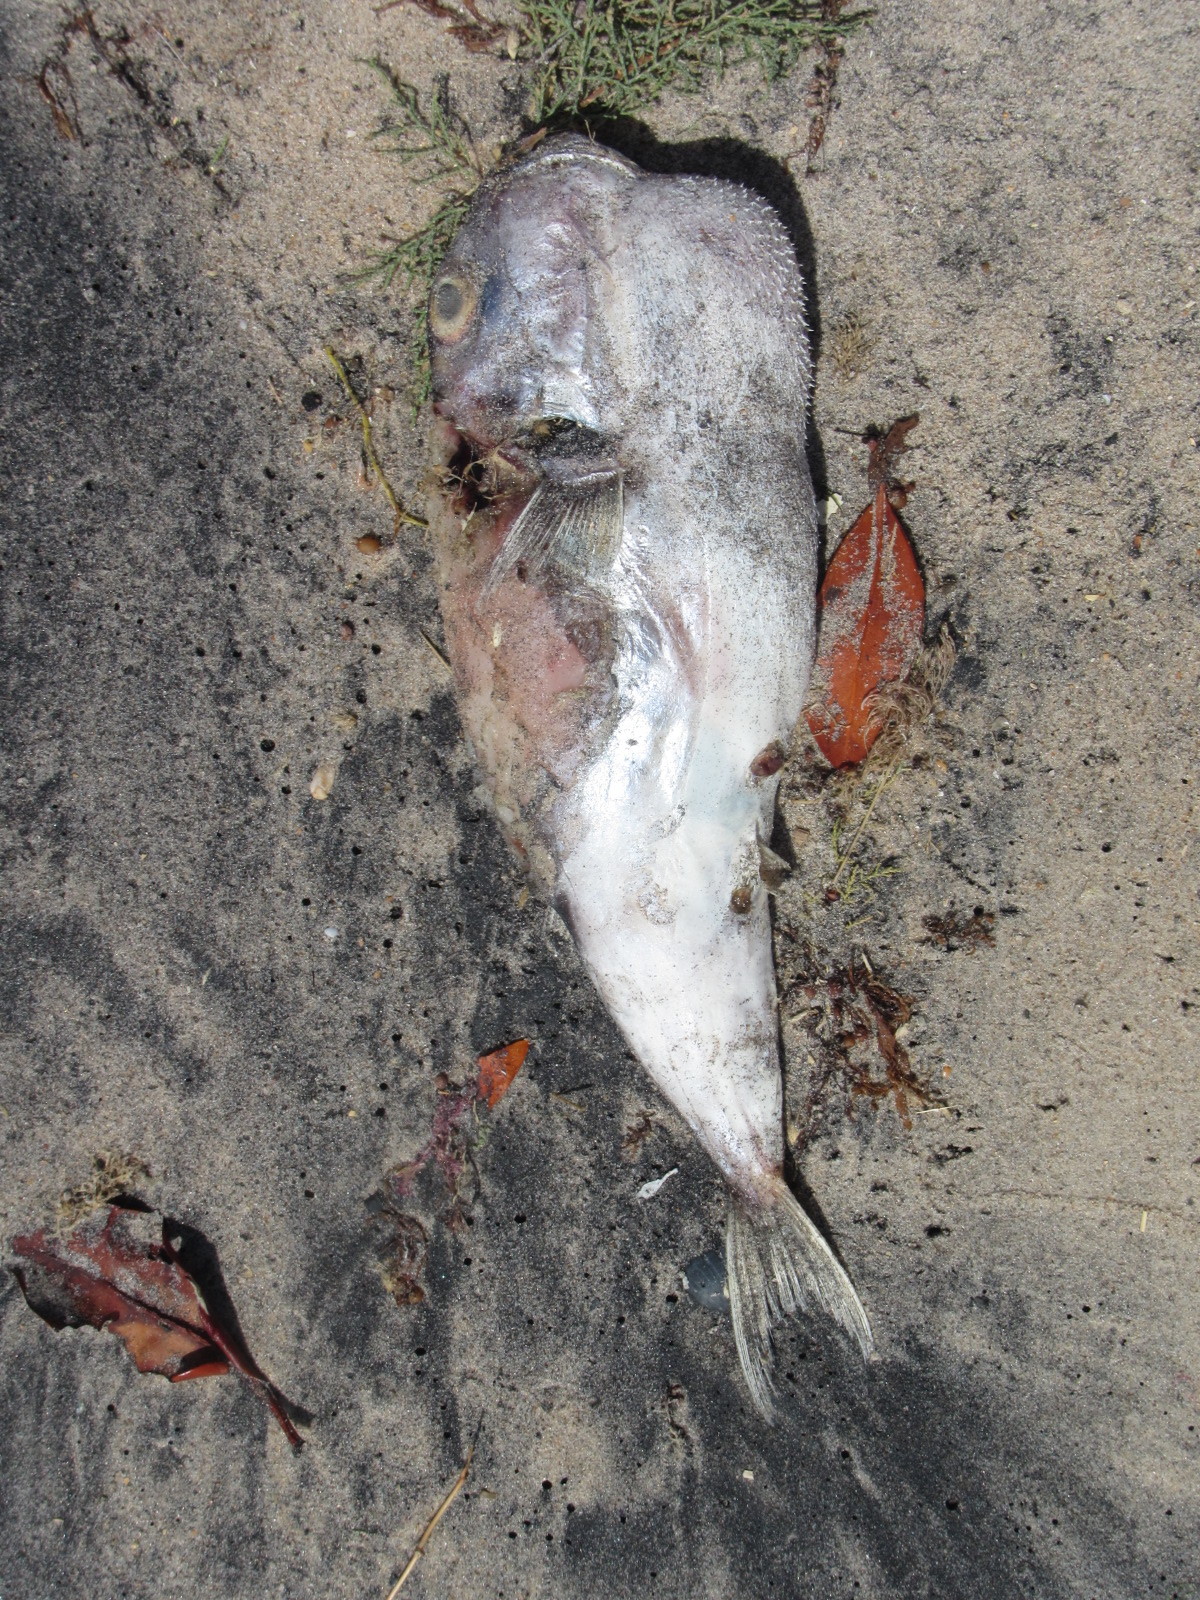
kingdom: Animalia
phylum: Chordata
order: Tetraodontiformes
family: Tetraodontidae
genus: Lagocephalus
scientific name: Lagocephalus laevigatus
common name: Puffer
